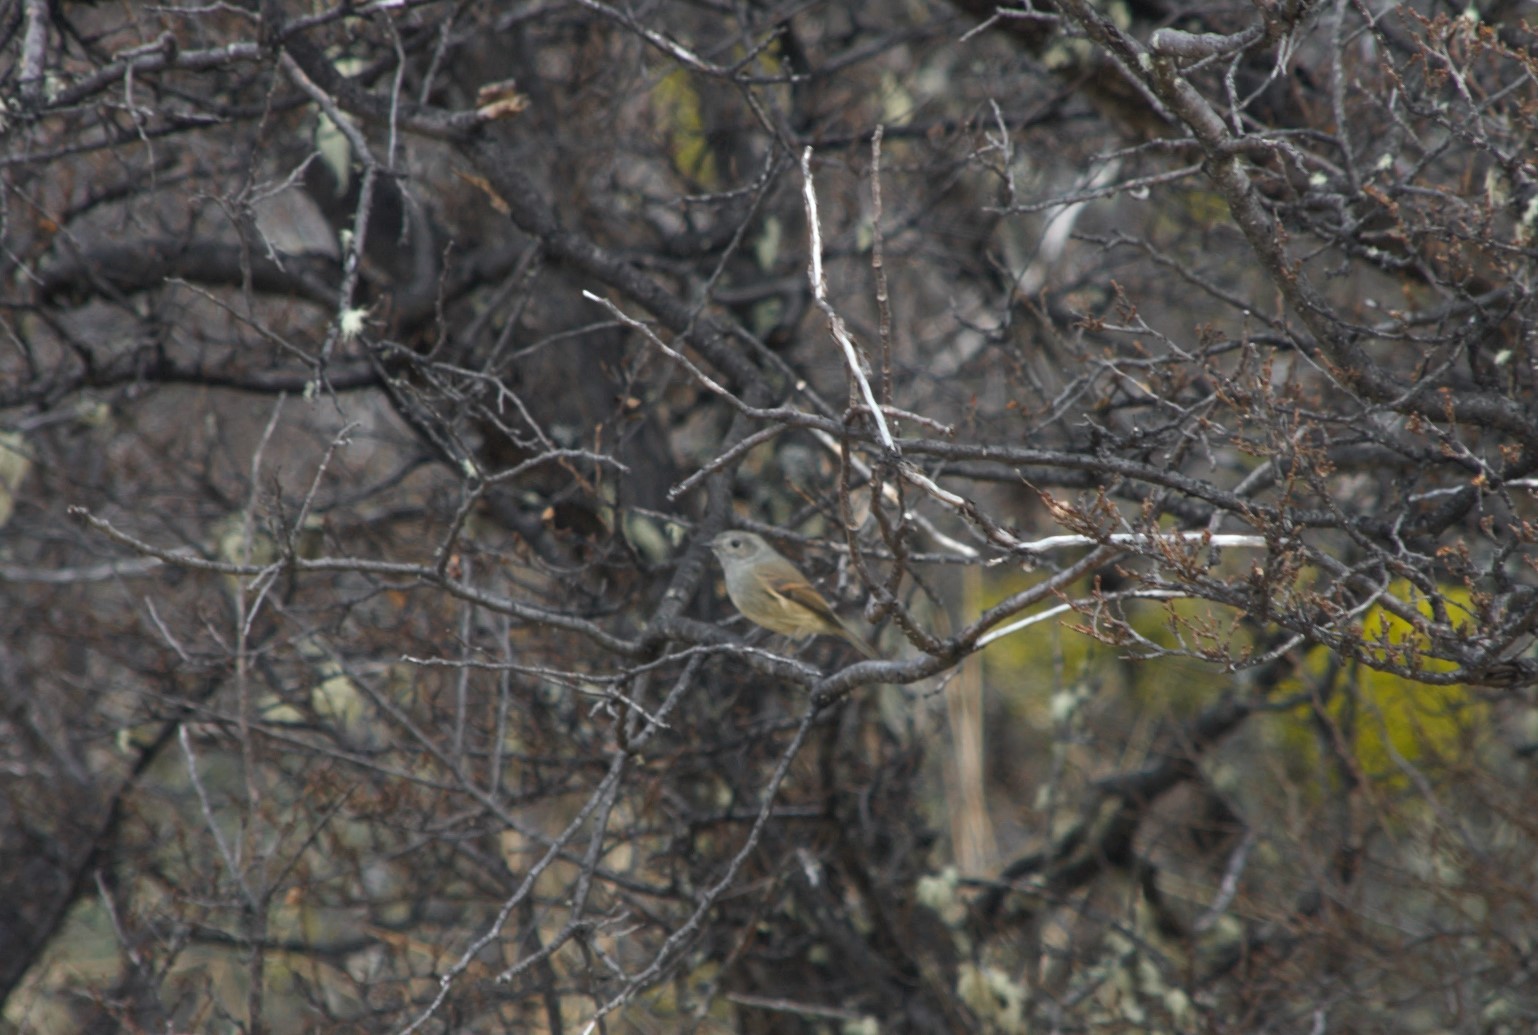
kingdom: Animalia
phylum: Chordata
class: Aves
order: Passeriformes
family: Tyrannidae
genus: Colorhamphus
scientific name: Colorhamphus parvirostris
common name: Patagonian tyrant
